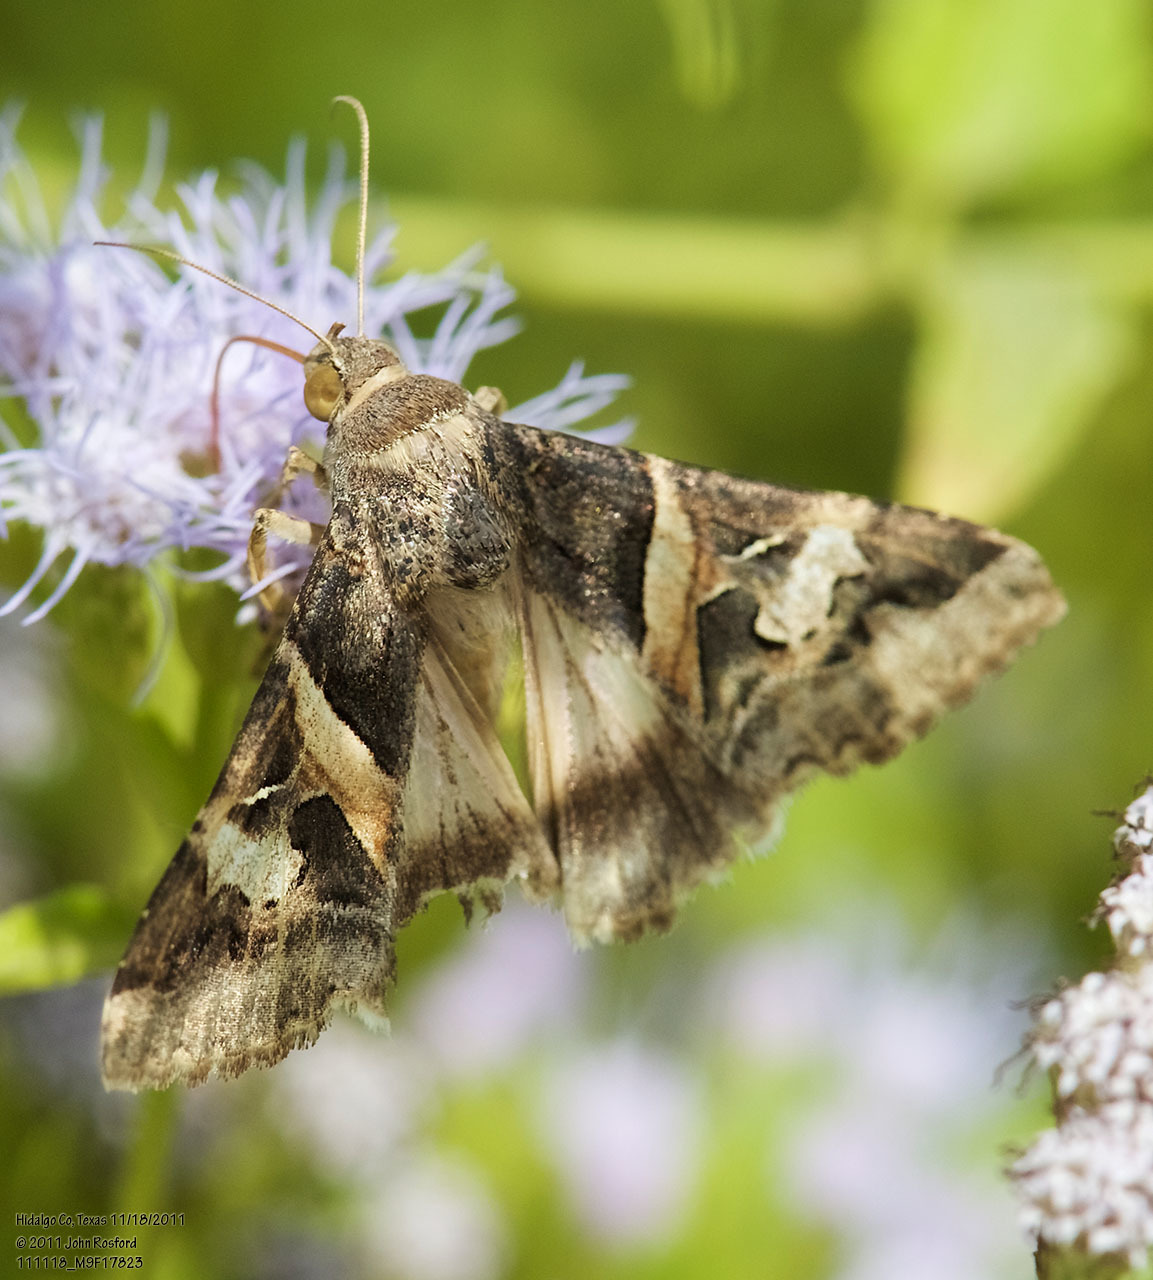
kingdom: Animalia
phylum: Arthropoda
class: Insecta
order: Lepidoptera
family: Erebidae
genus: Melipotis
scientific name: Melipotis indomita
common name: Moth
